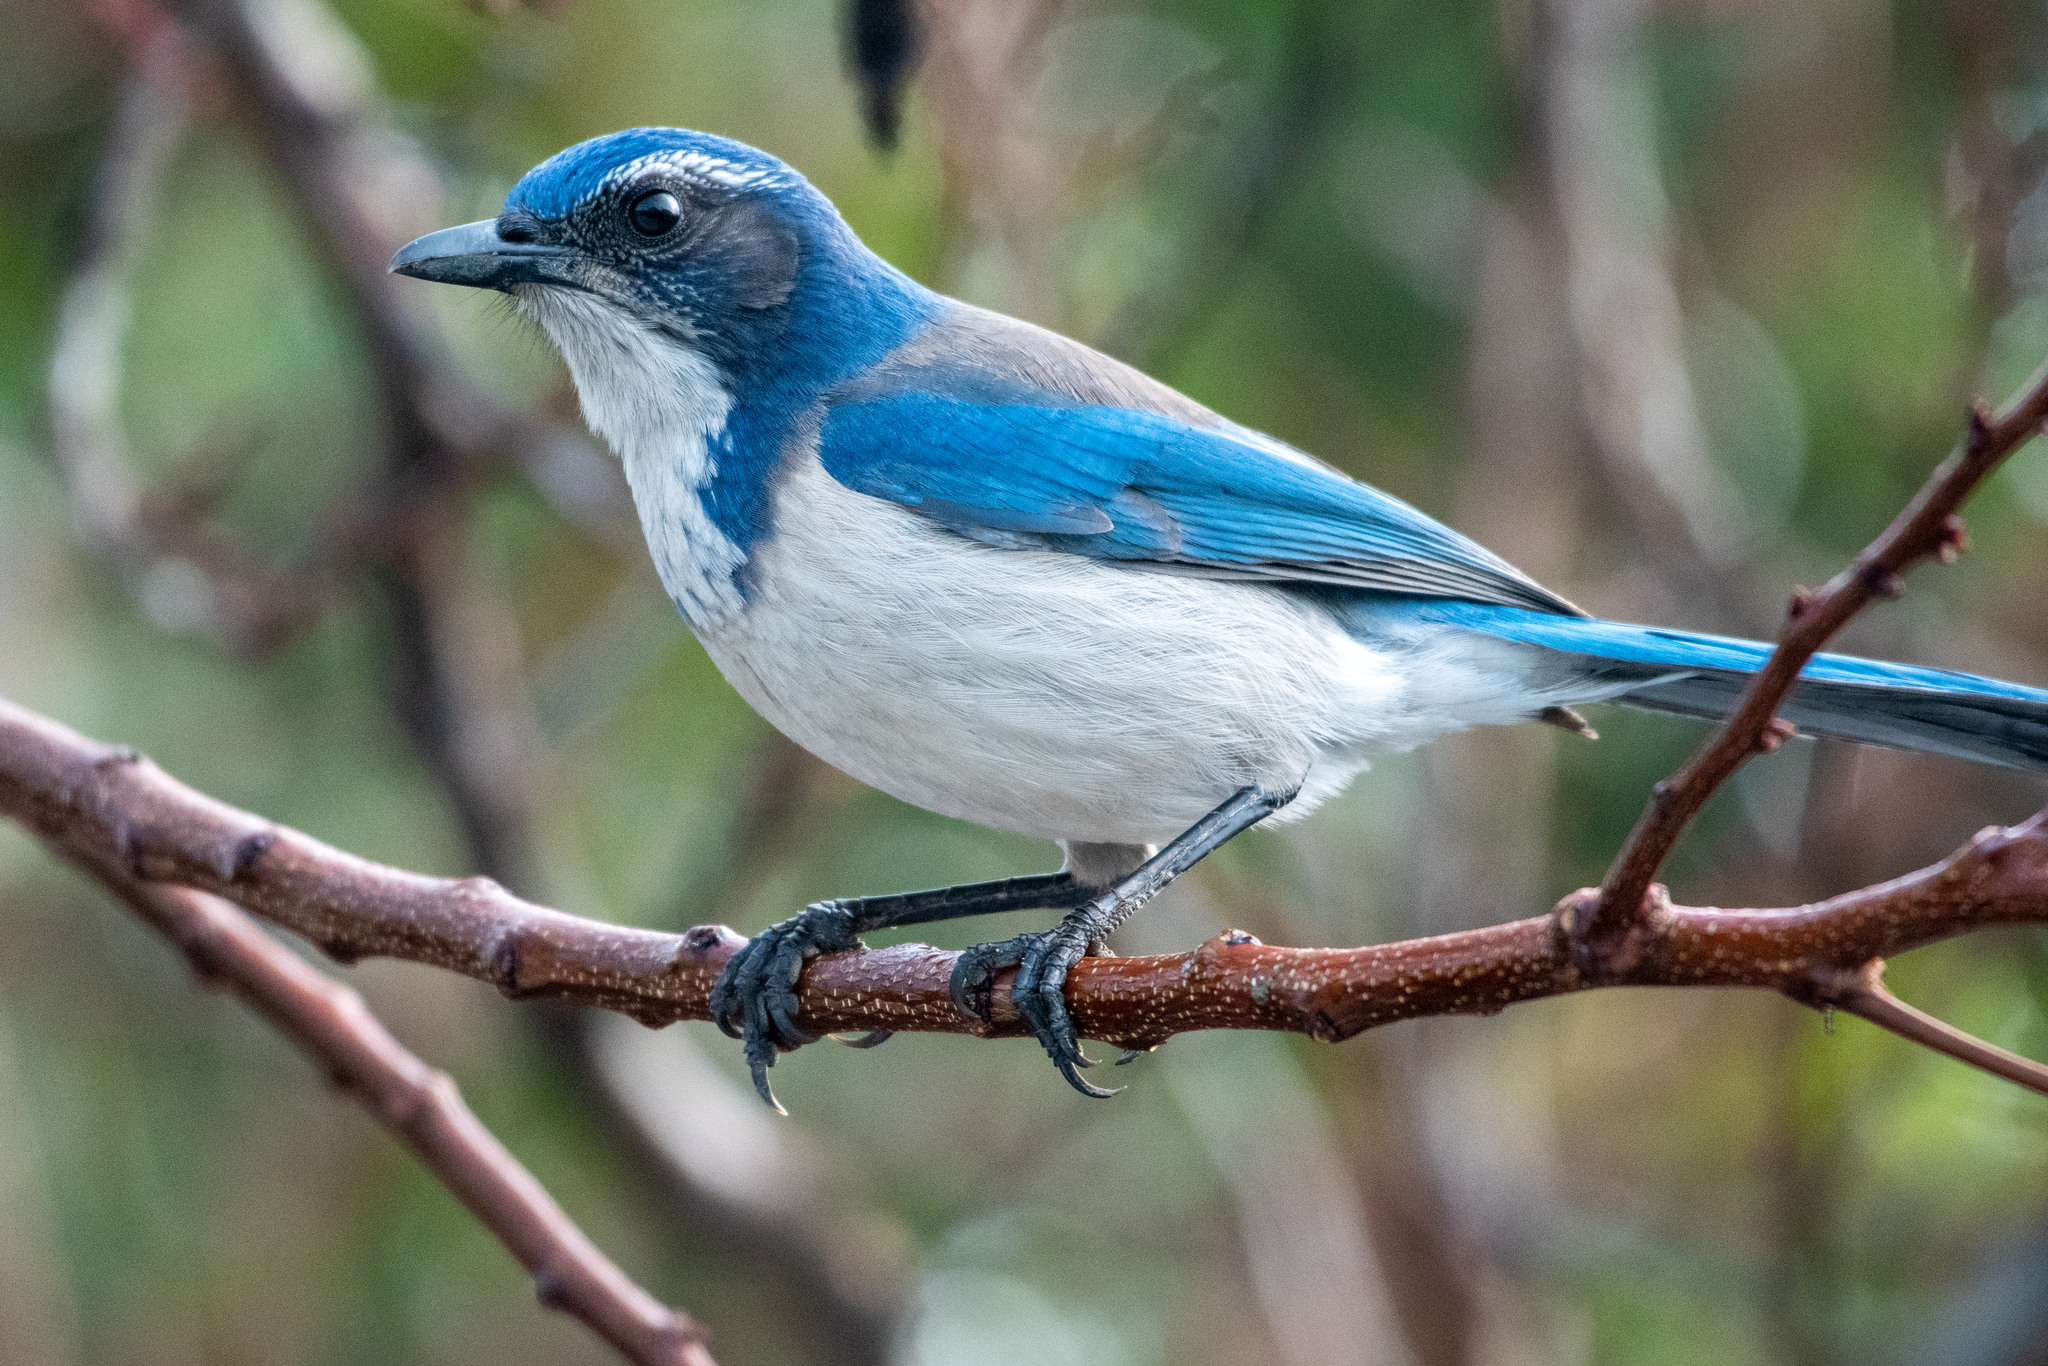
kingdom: Animalia
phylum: Chordata
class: Aves
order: Passeriformes
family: Corvidae
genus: Aphelocoma
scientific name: Aphelocoma californica
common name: California scrub-jay
